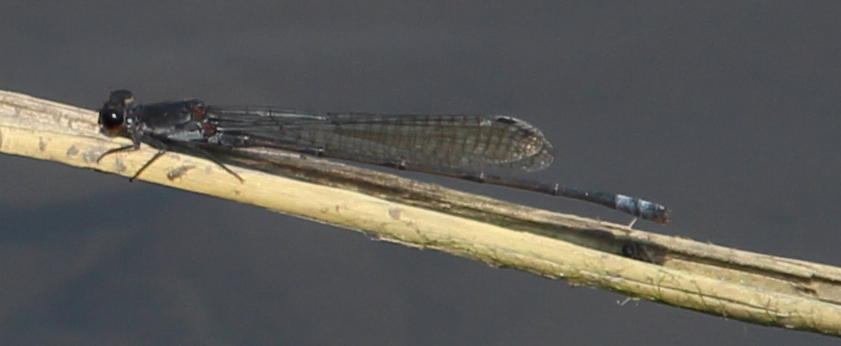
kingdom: Animalia
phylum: Arthropoda
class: Insecta
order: Odonata
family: Coenagrionidae
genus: Pseudagrion
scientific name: Pseudagrion commoniae
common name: Black sprite
